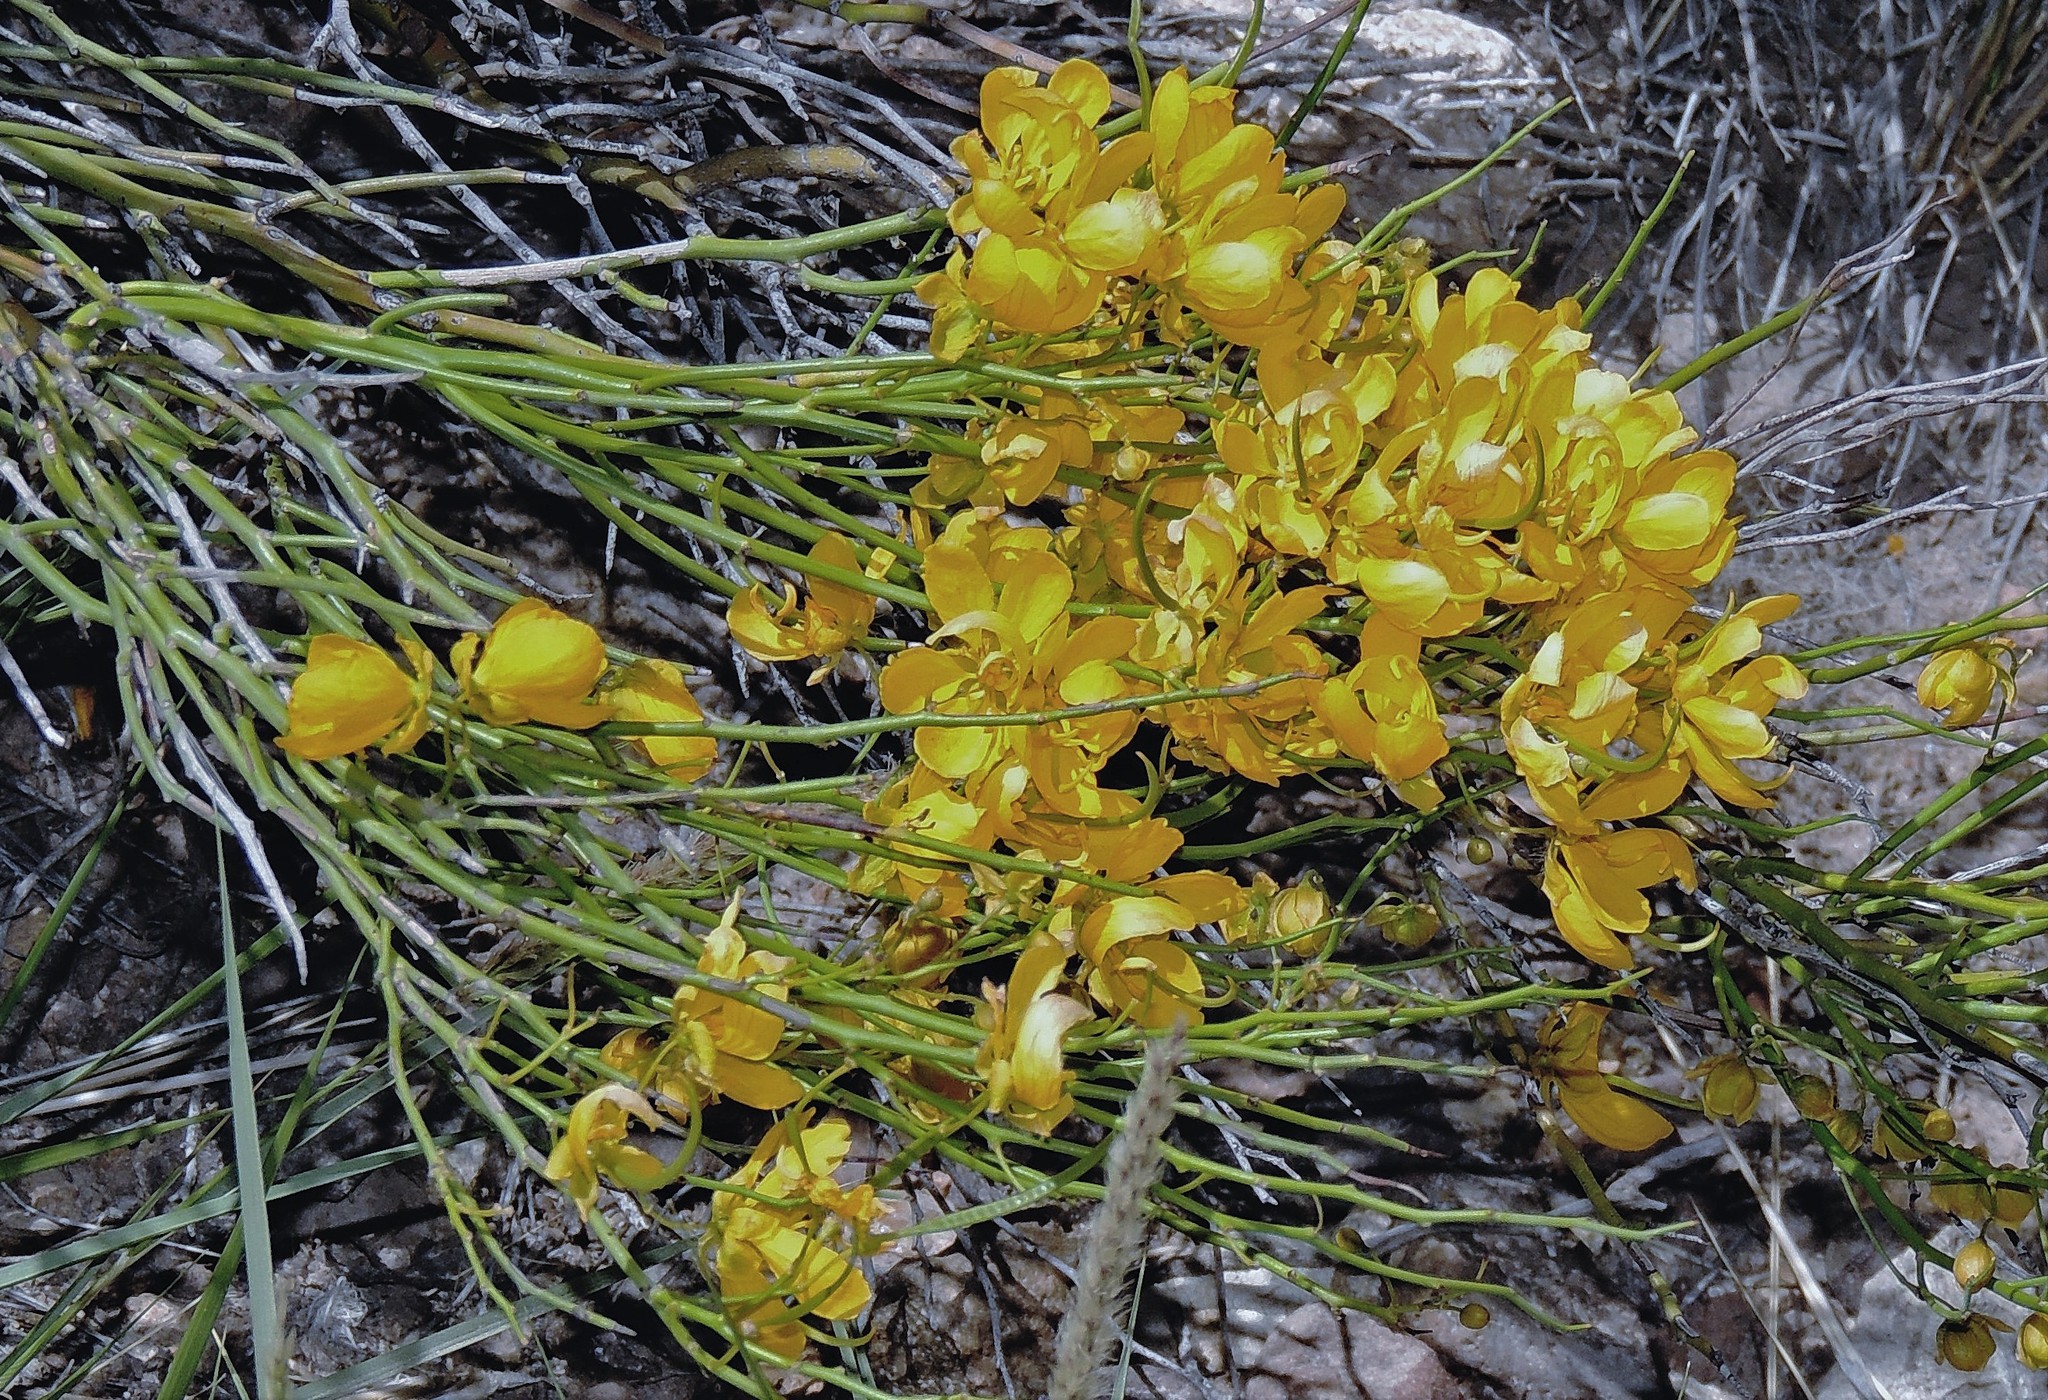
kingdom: Plantae
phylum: Tracheophyta
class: Magnoliopsida
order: Fabales
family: Fabaceae
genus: Senna
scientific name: Senna aphylla
